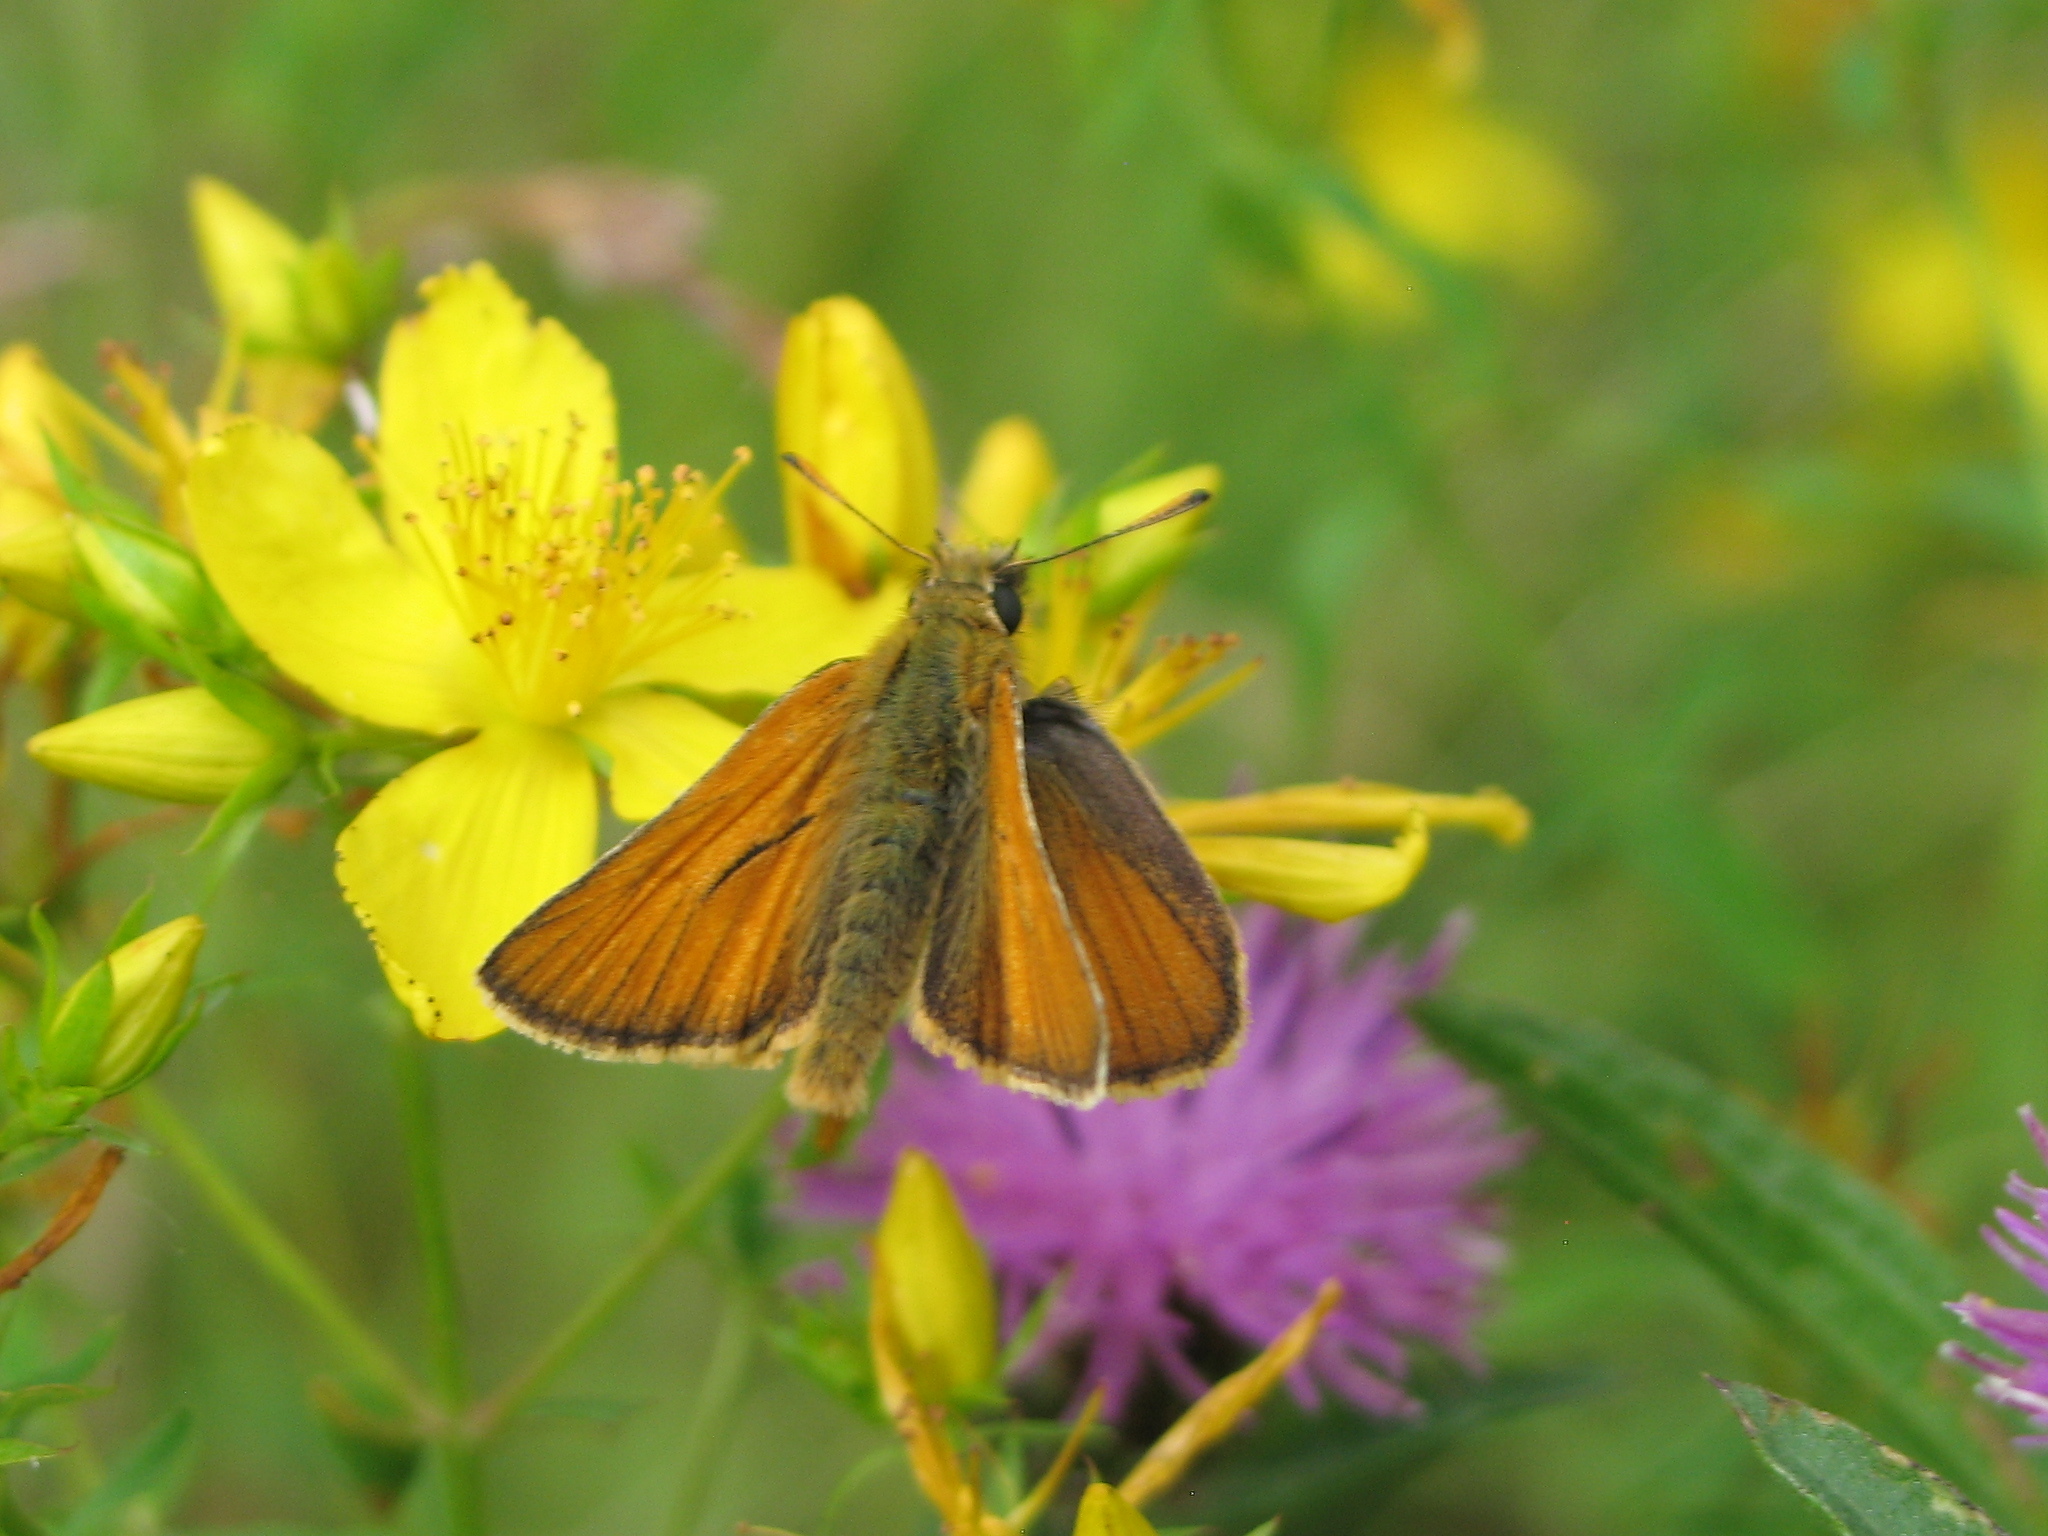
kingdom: Animalia
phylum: Arthropoda
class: Insecta
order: Lepidoptera
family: Hesperiidae
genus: Thymelicus
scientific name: Thymelicus sylvestris
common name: Small skipper
